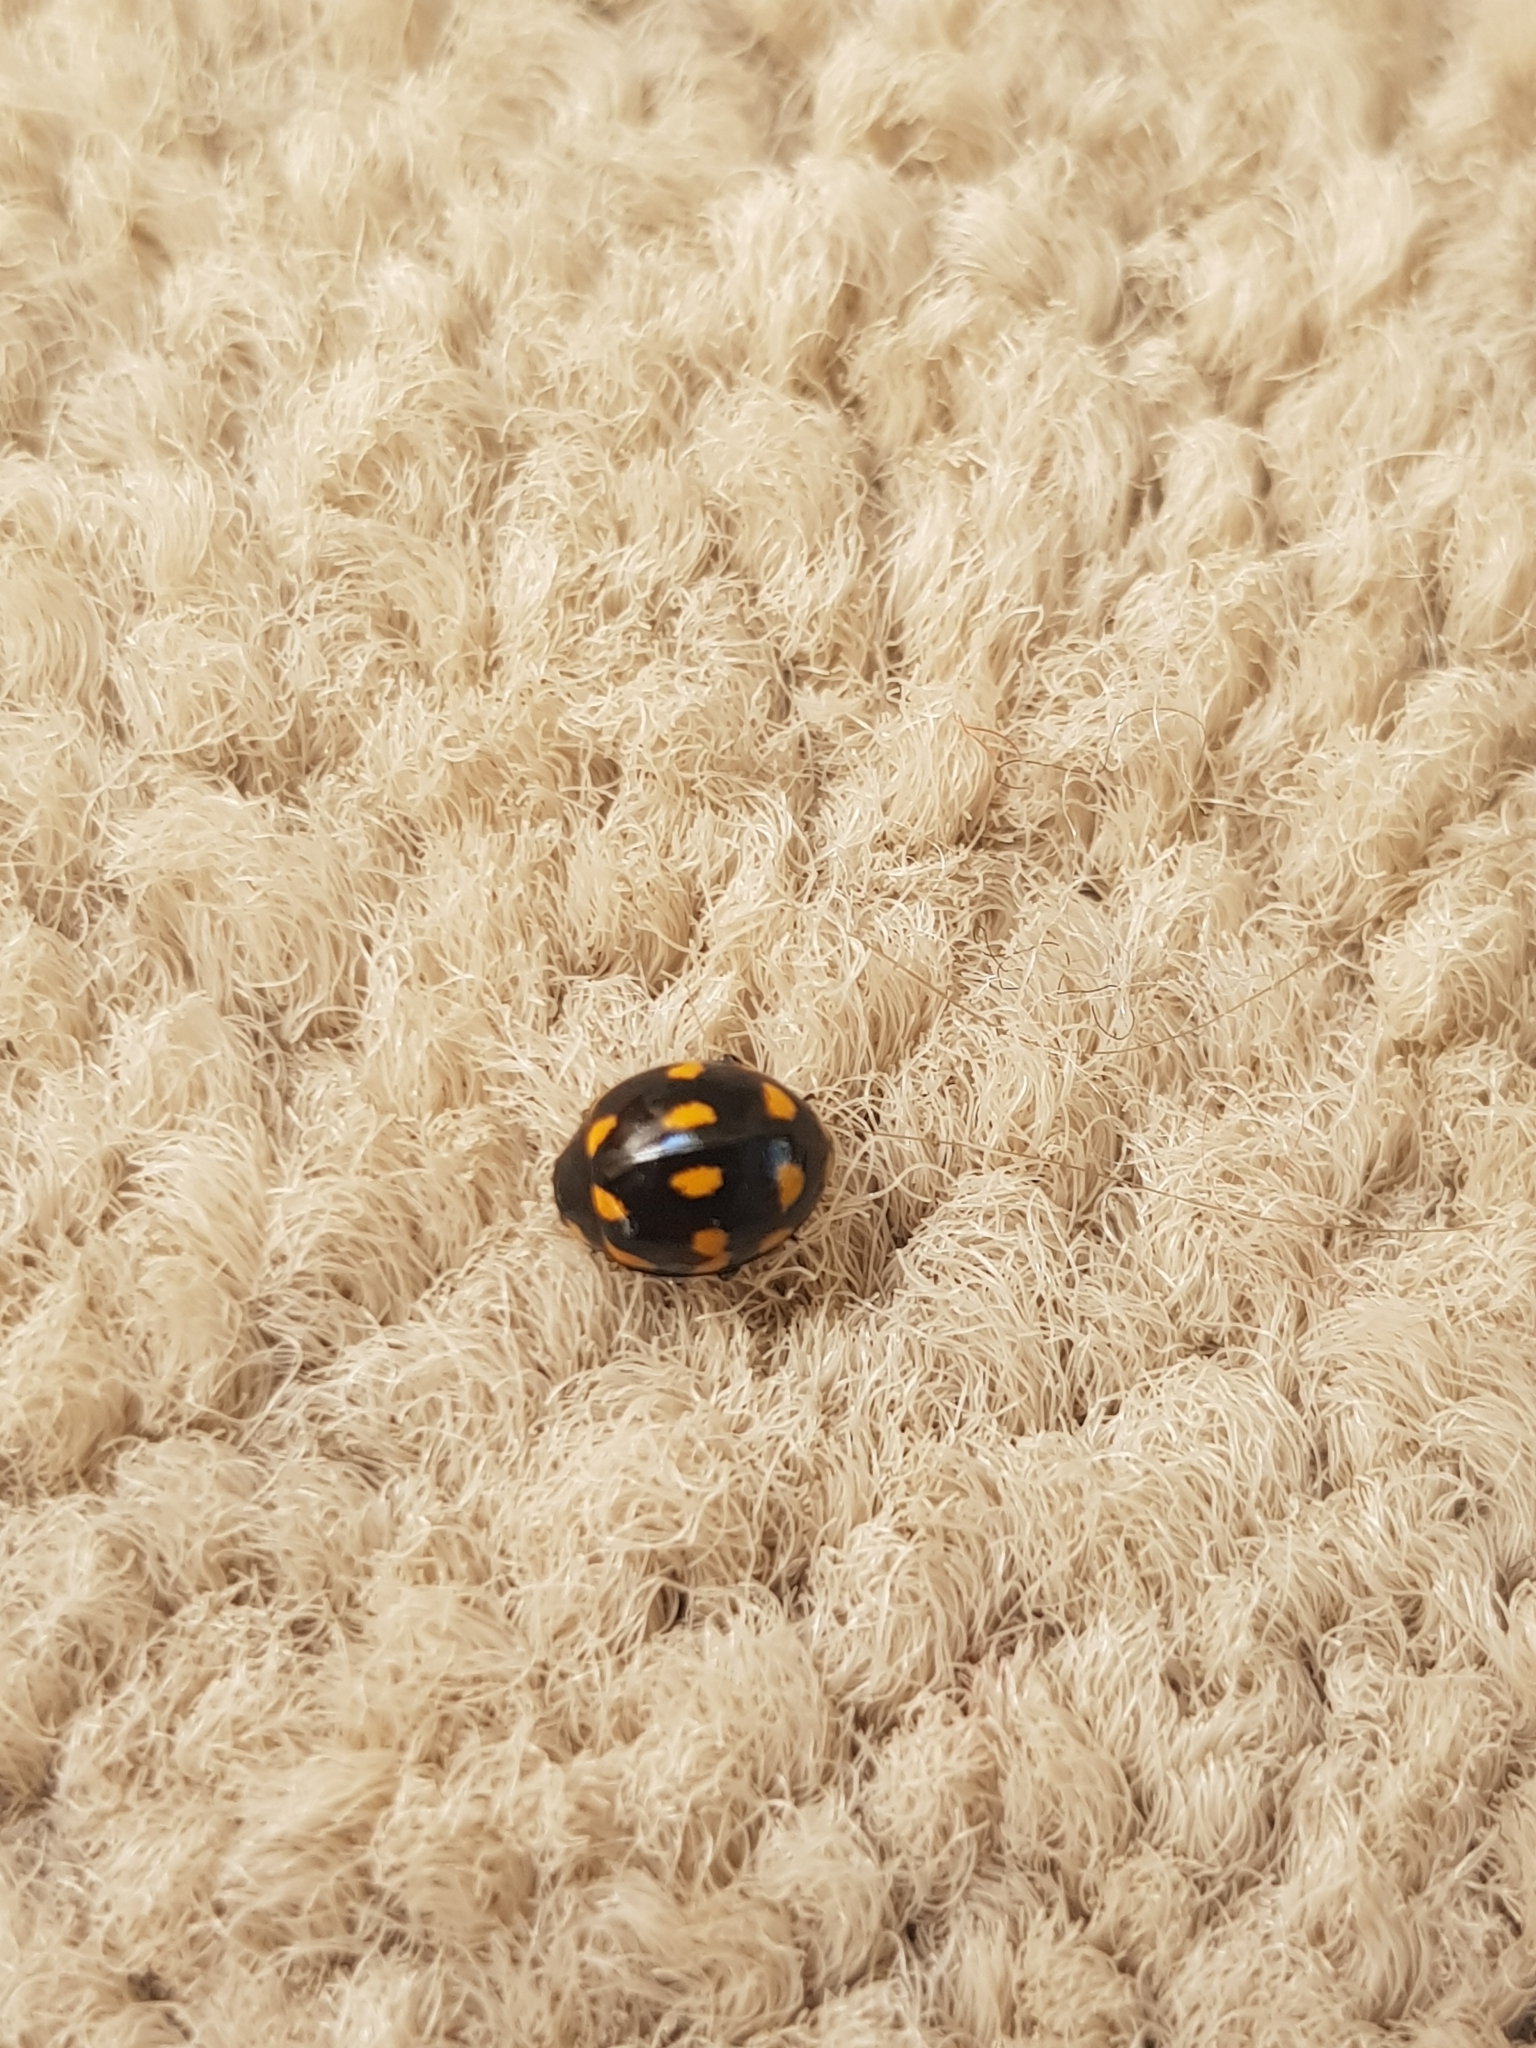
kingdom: Animalia
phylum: Arthropoda
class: Insecta
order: Coleoptera
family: Coccinellidae
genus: Coccinella
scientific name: Coccinella leonina
